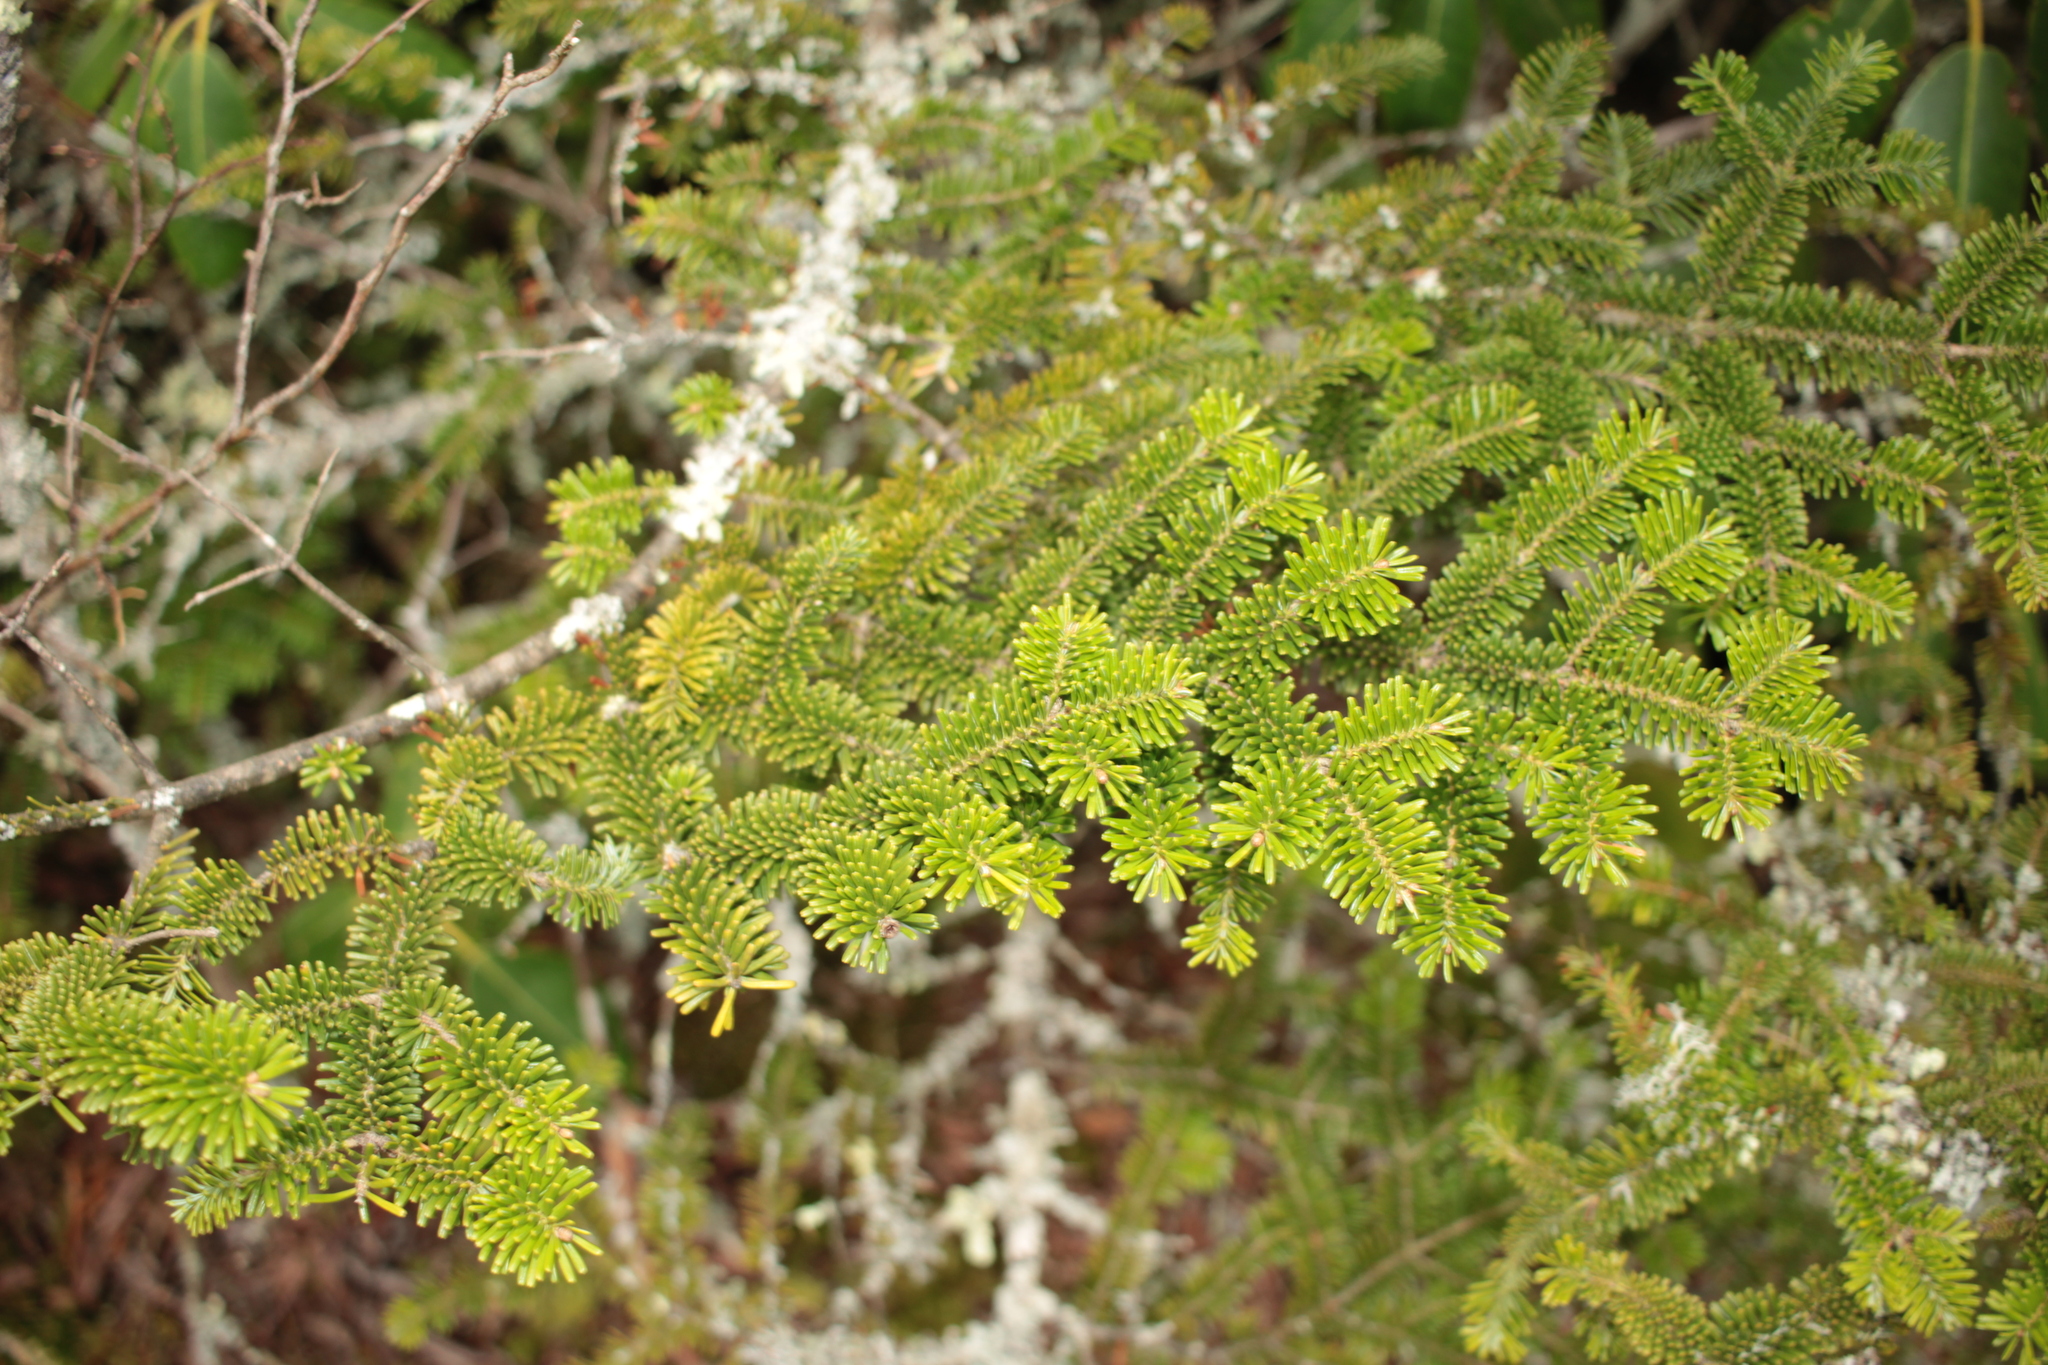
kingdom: Plantae
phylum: Tracheophyta
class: Pinopsida
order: Pinales
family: Pinaceae
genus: Abies
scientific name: Abies fraseri
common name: Fraser fir
